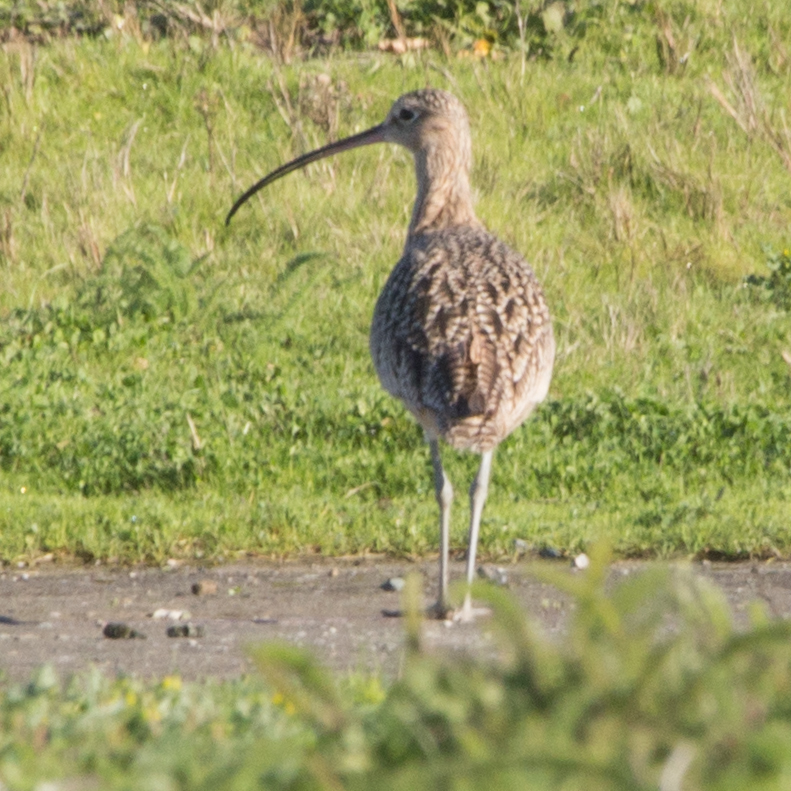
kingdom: Animalia
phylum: Chordata
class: Aves
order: Charadriiformes
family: Scolopacidae
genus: Numenius
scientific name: Numenius americanus
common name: Long-billed curlew
